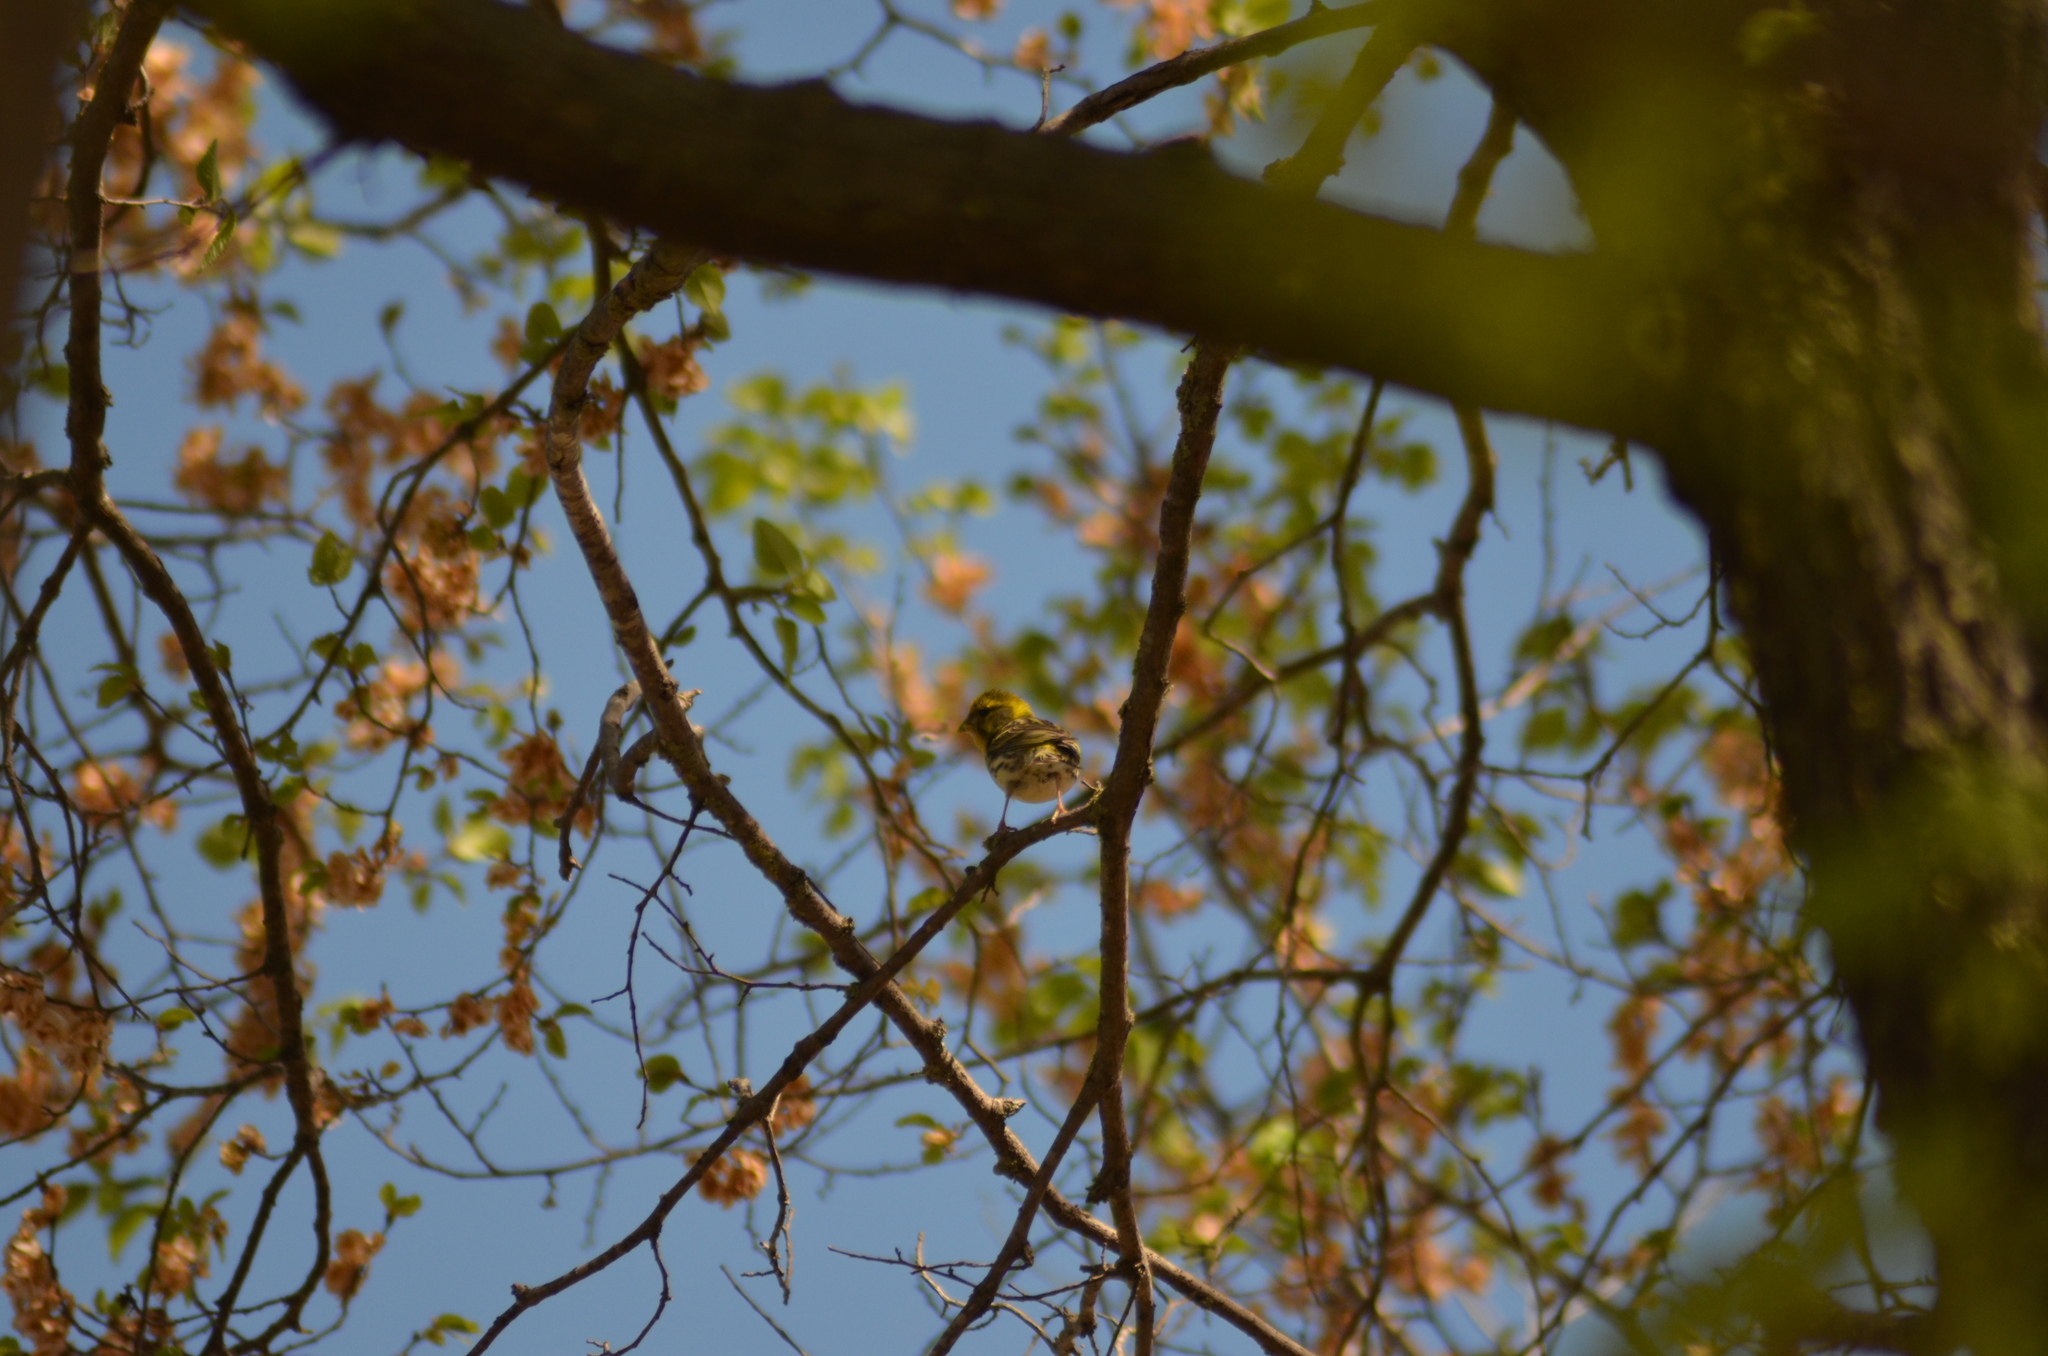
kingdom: Animalia
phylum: Chordata
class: Aves
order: Passeriformes
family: Fringillidae
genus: Serinus
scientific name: Serinus serinus
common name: European serin
